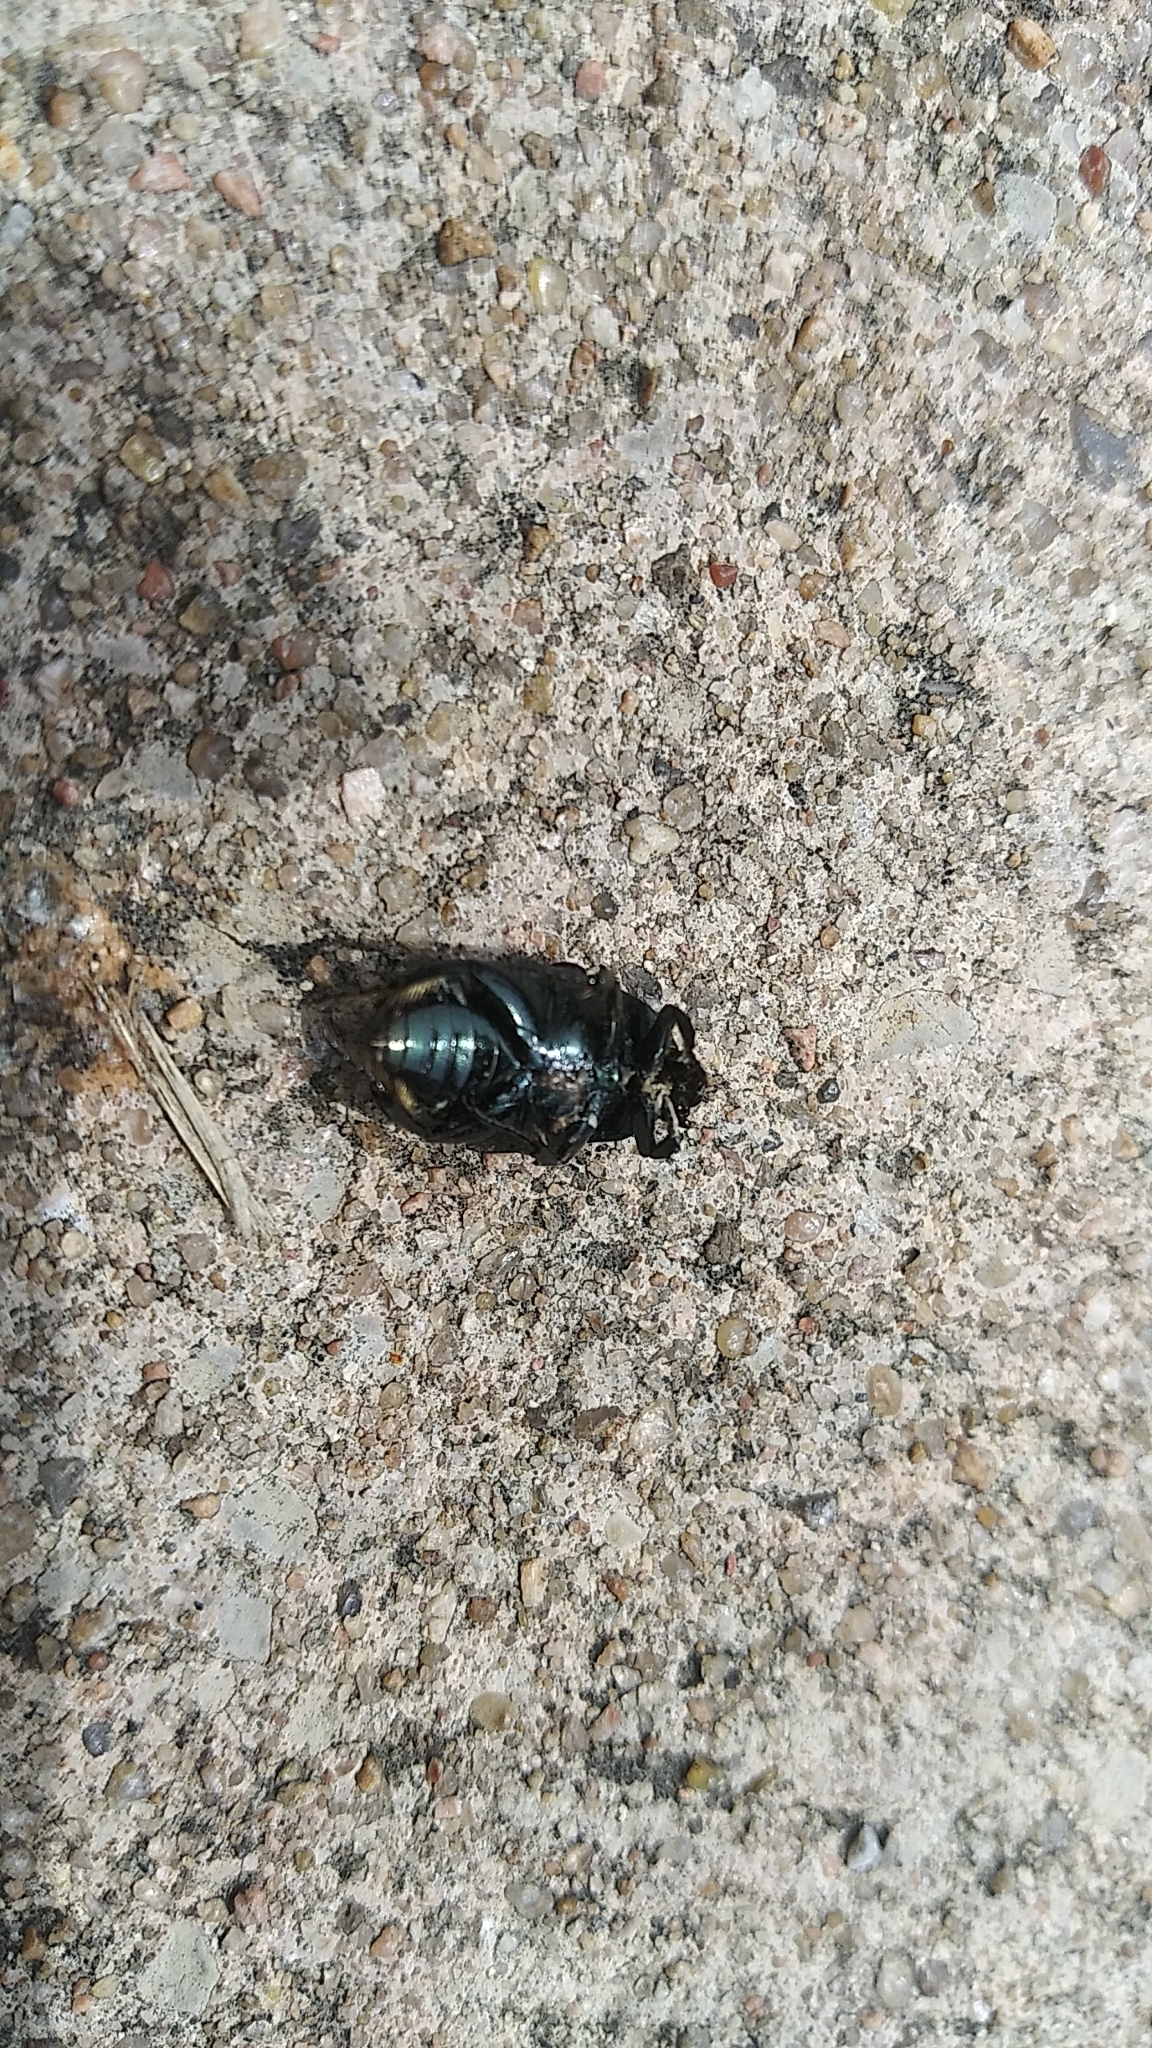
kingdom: Animalia
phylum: Arthropoda
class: Insecta
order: Coleoptera
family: Scarabaeidae
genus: Euphoria
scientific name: Euphoria sepulcralis
